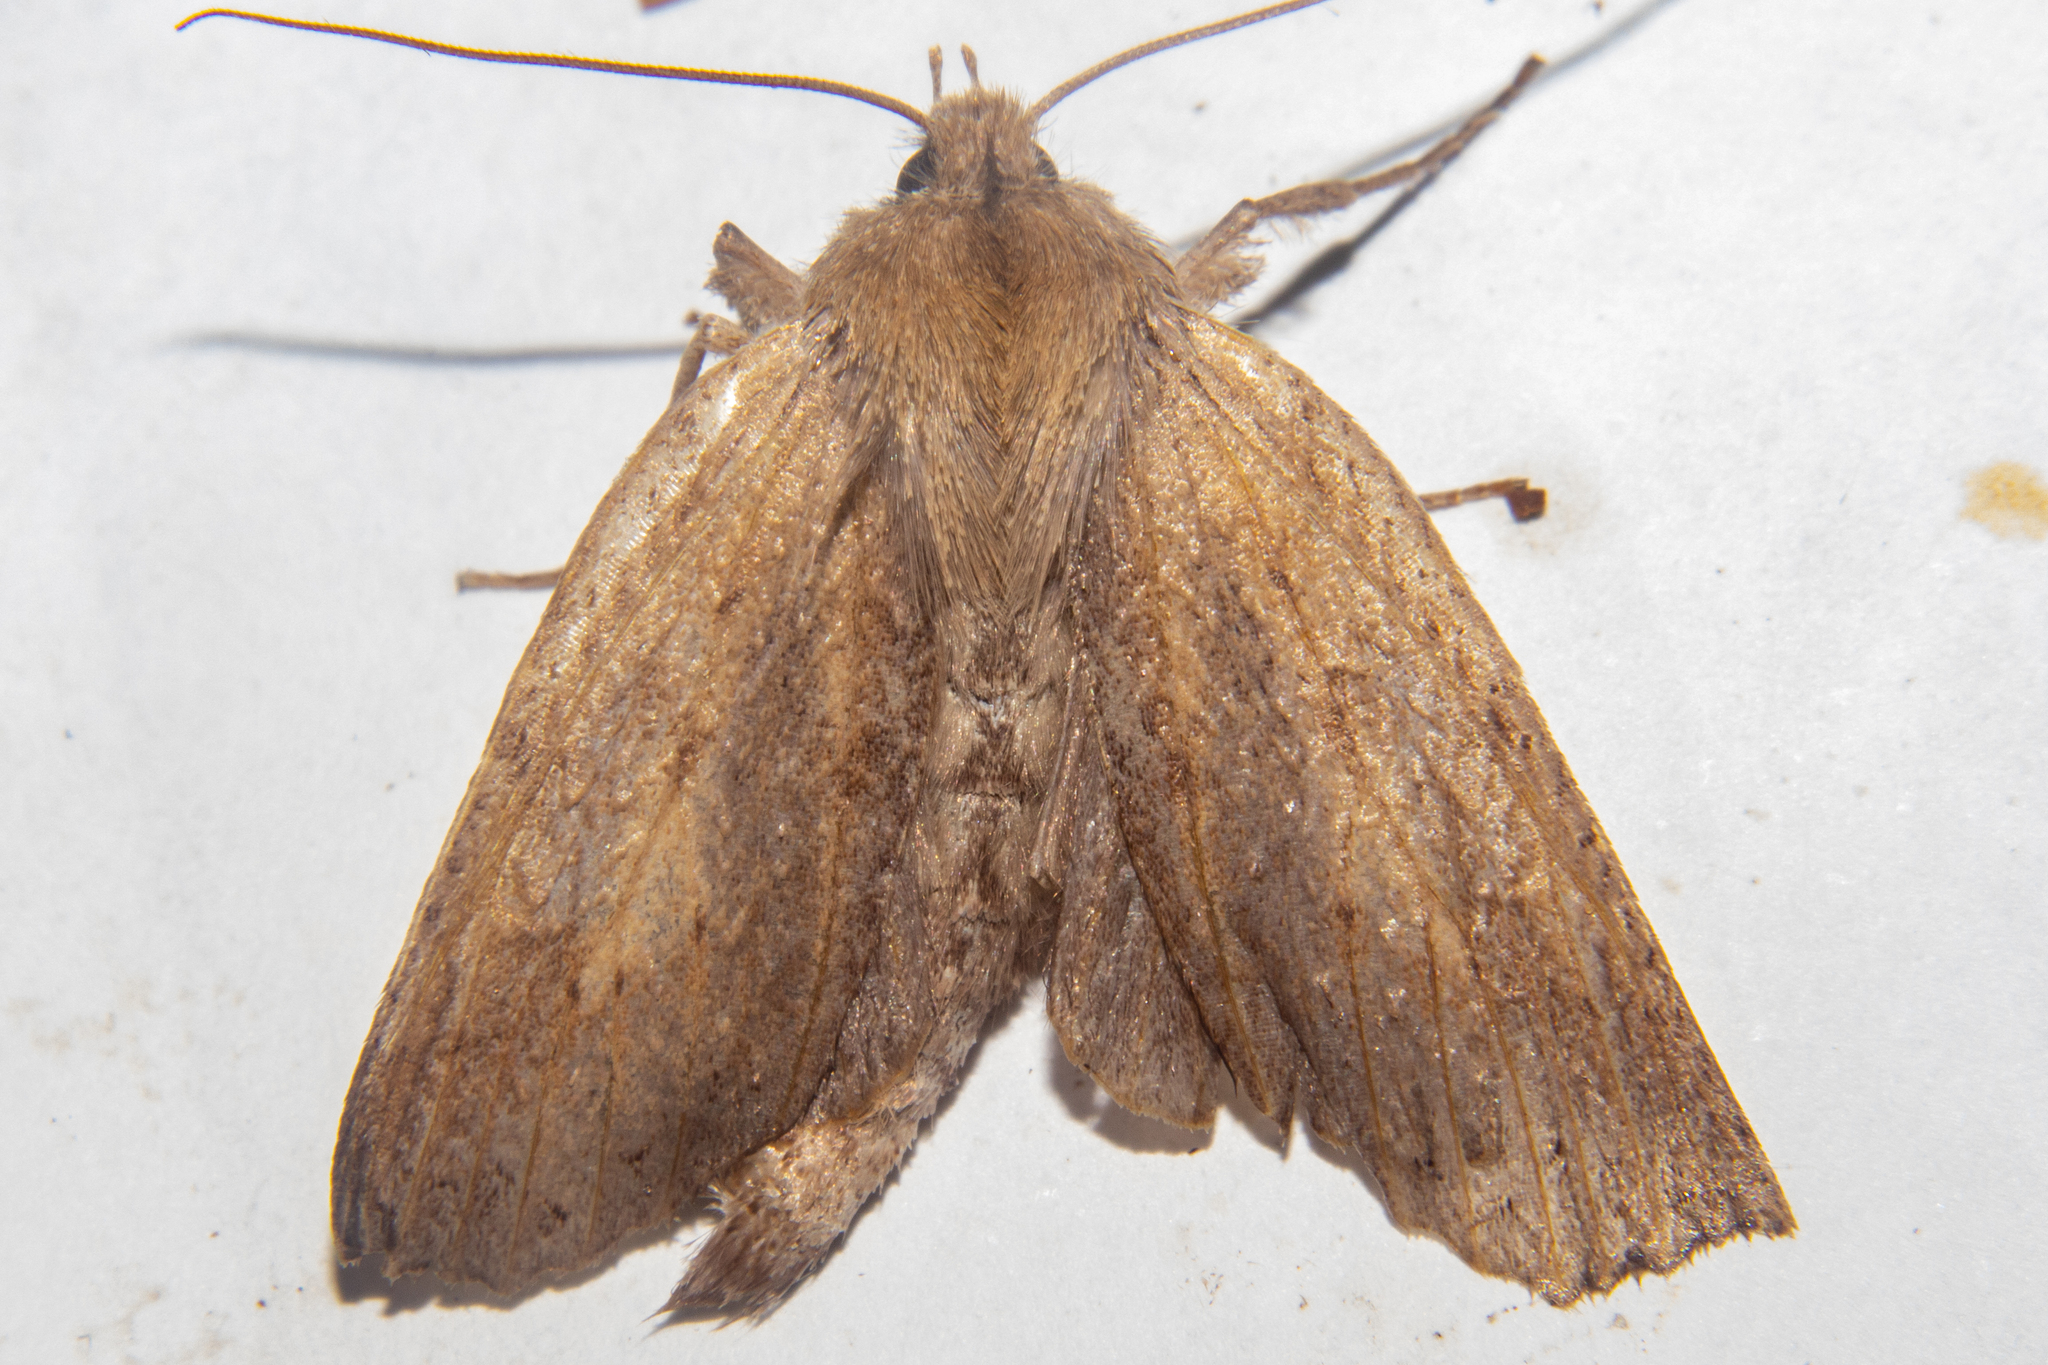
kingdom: Animalia
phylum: Arthropoda
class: Insecta
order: Lepidoptera
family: Geometridae
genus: Declana
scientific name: Declana leptomera
